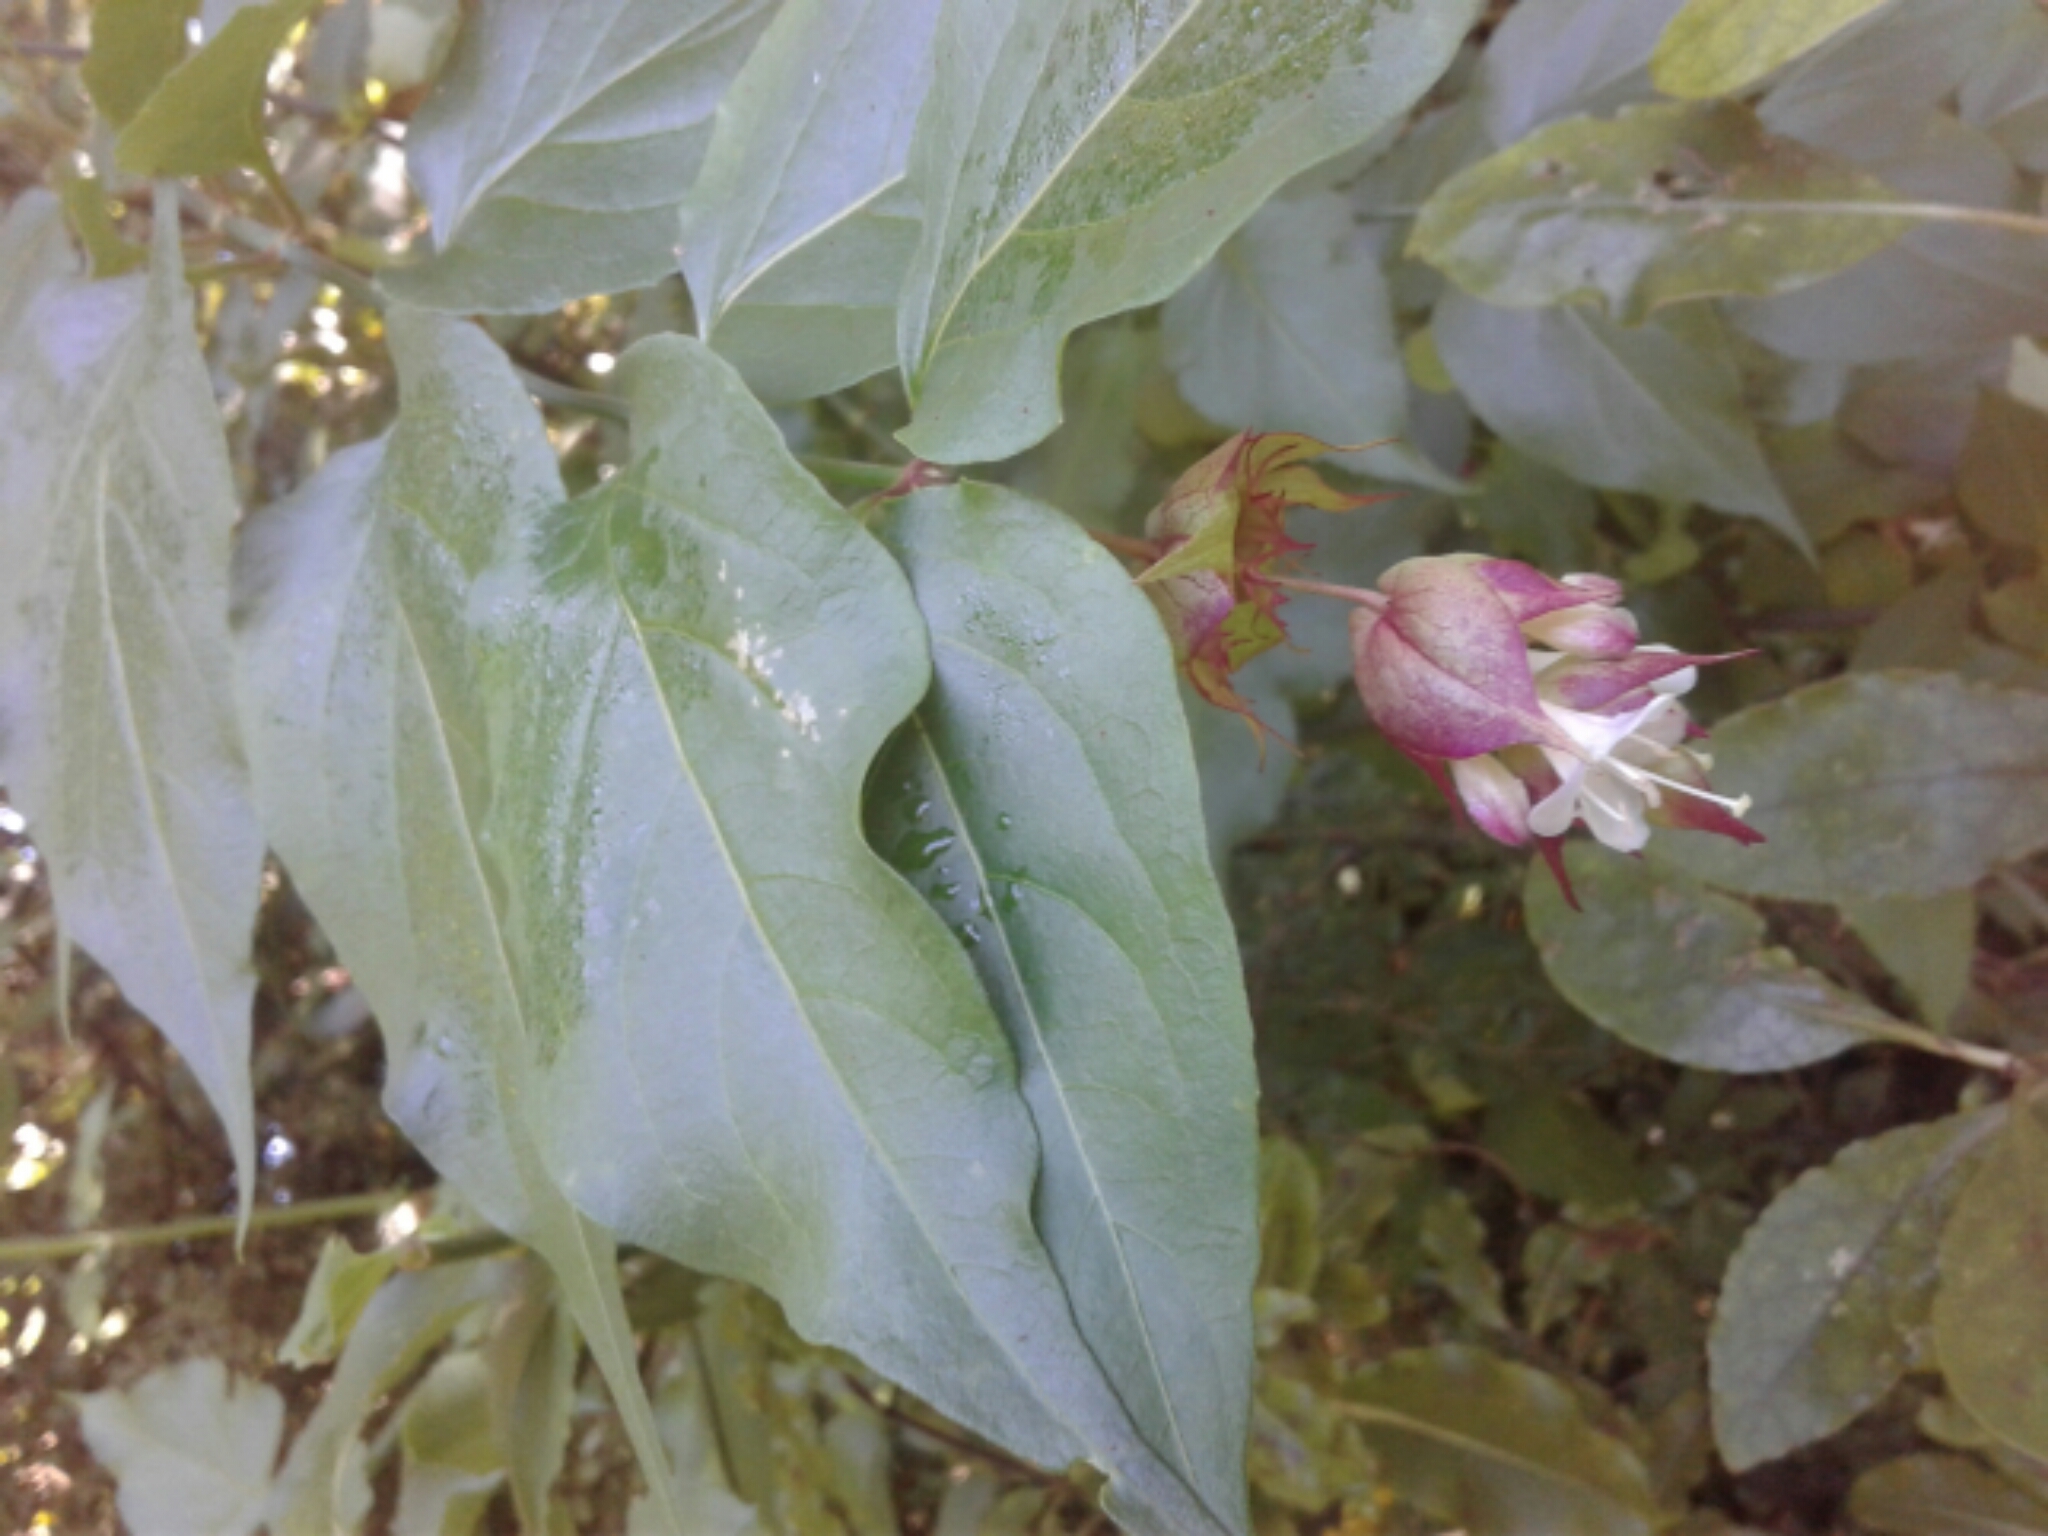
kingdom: Plantae
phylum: Tracheophyta
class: Magnoliopsida
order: Dipsacales
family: Caprifoliaceae
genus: Leycesteria
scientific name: Leycesteria formosa
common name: Himalayan honeysuckle
